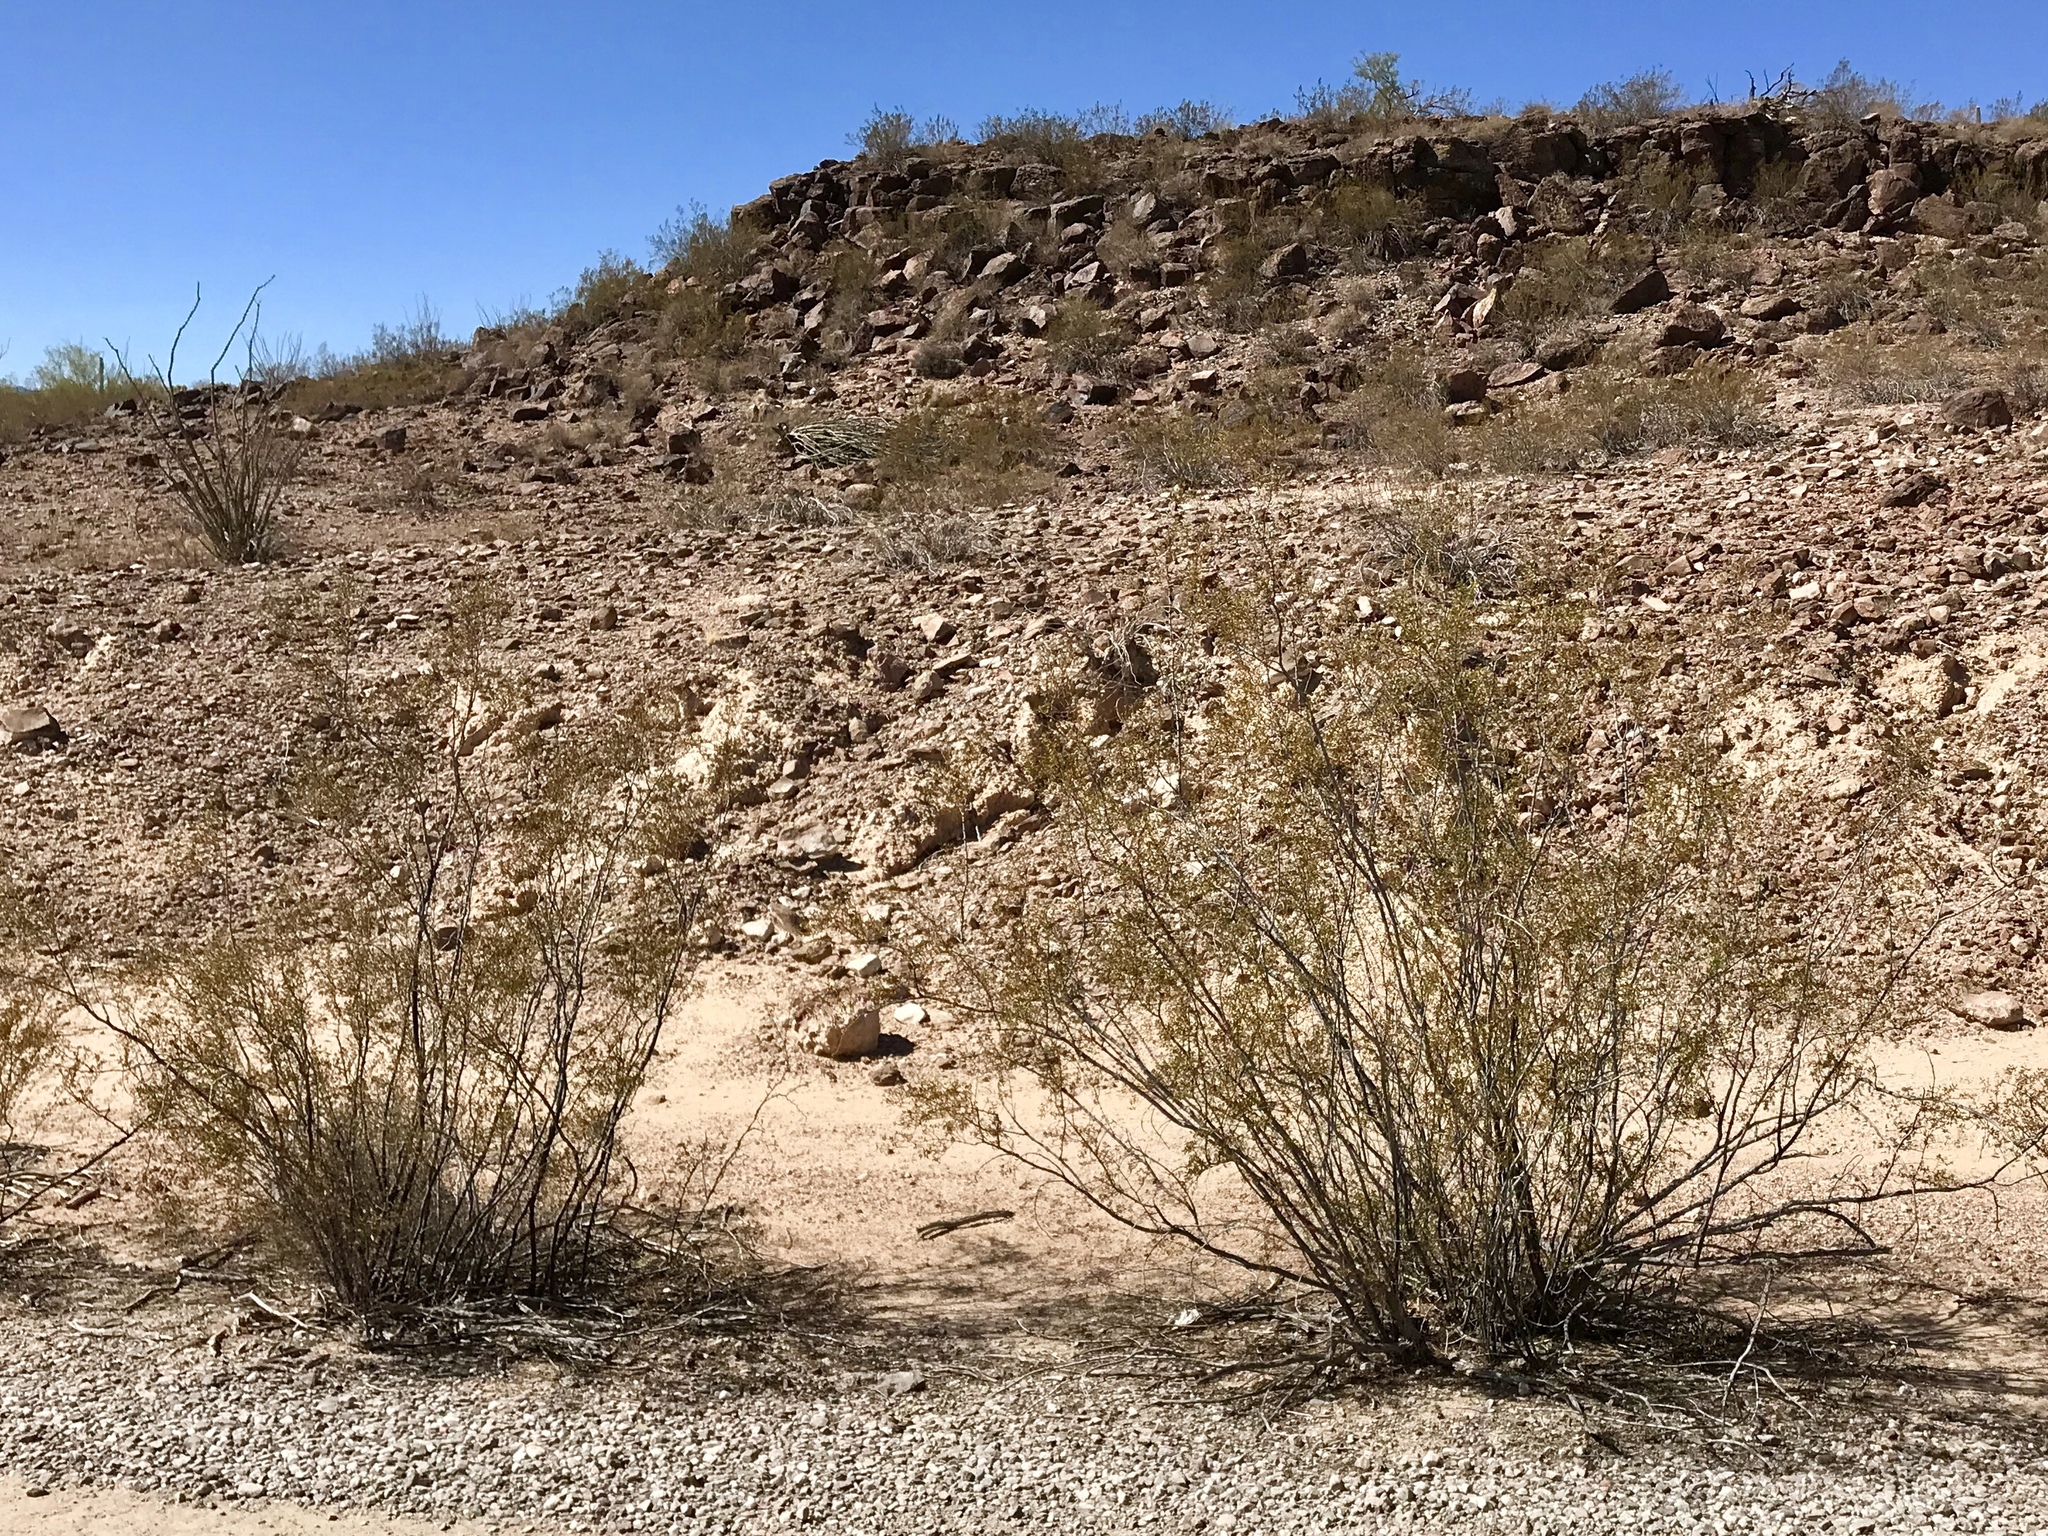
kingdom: Plantae
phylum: Tracheophyta
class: Magnoliopsida
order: Zygophyllales
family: Zygophyllaceae
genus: Larrea
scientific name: Larrea tridentata
